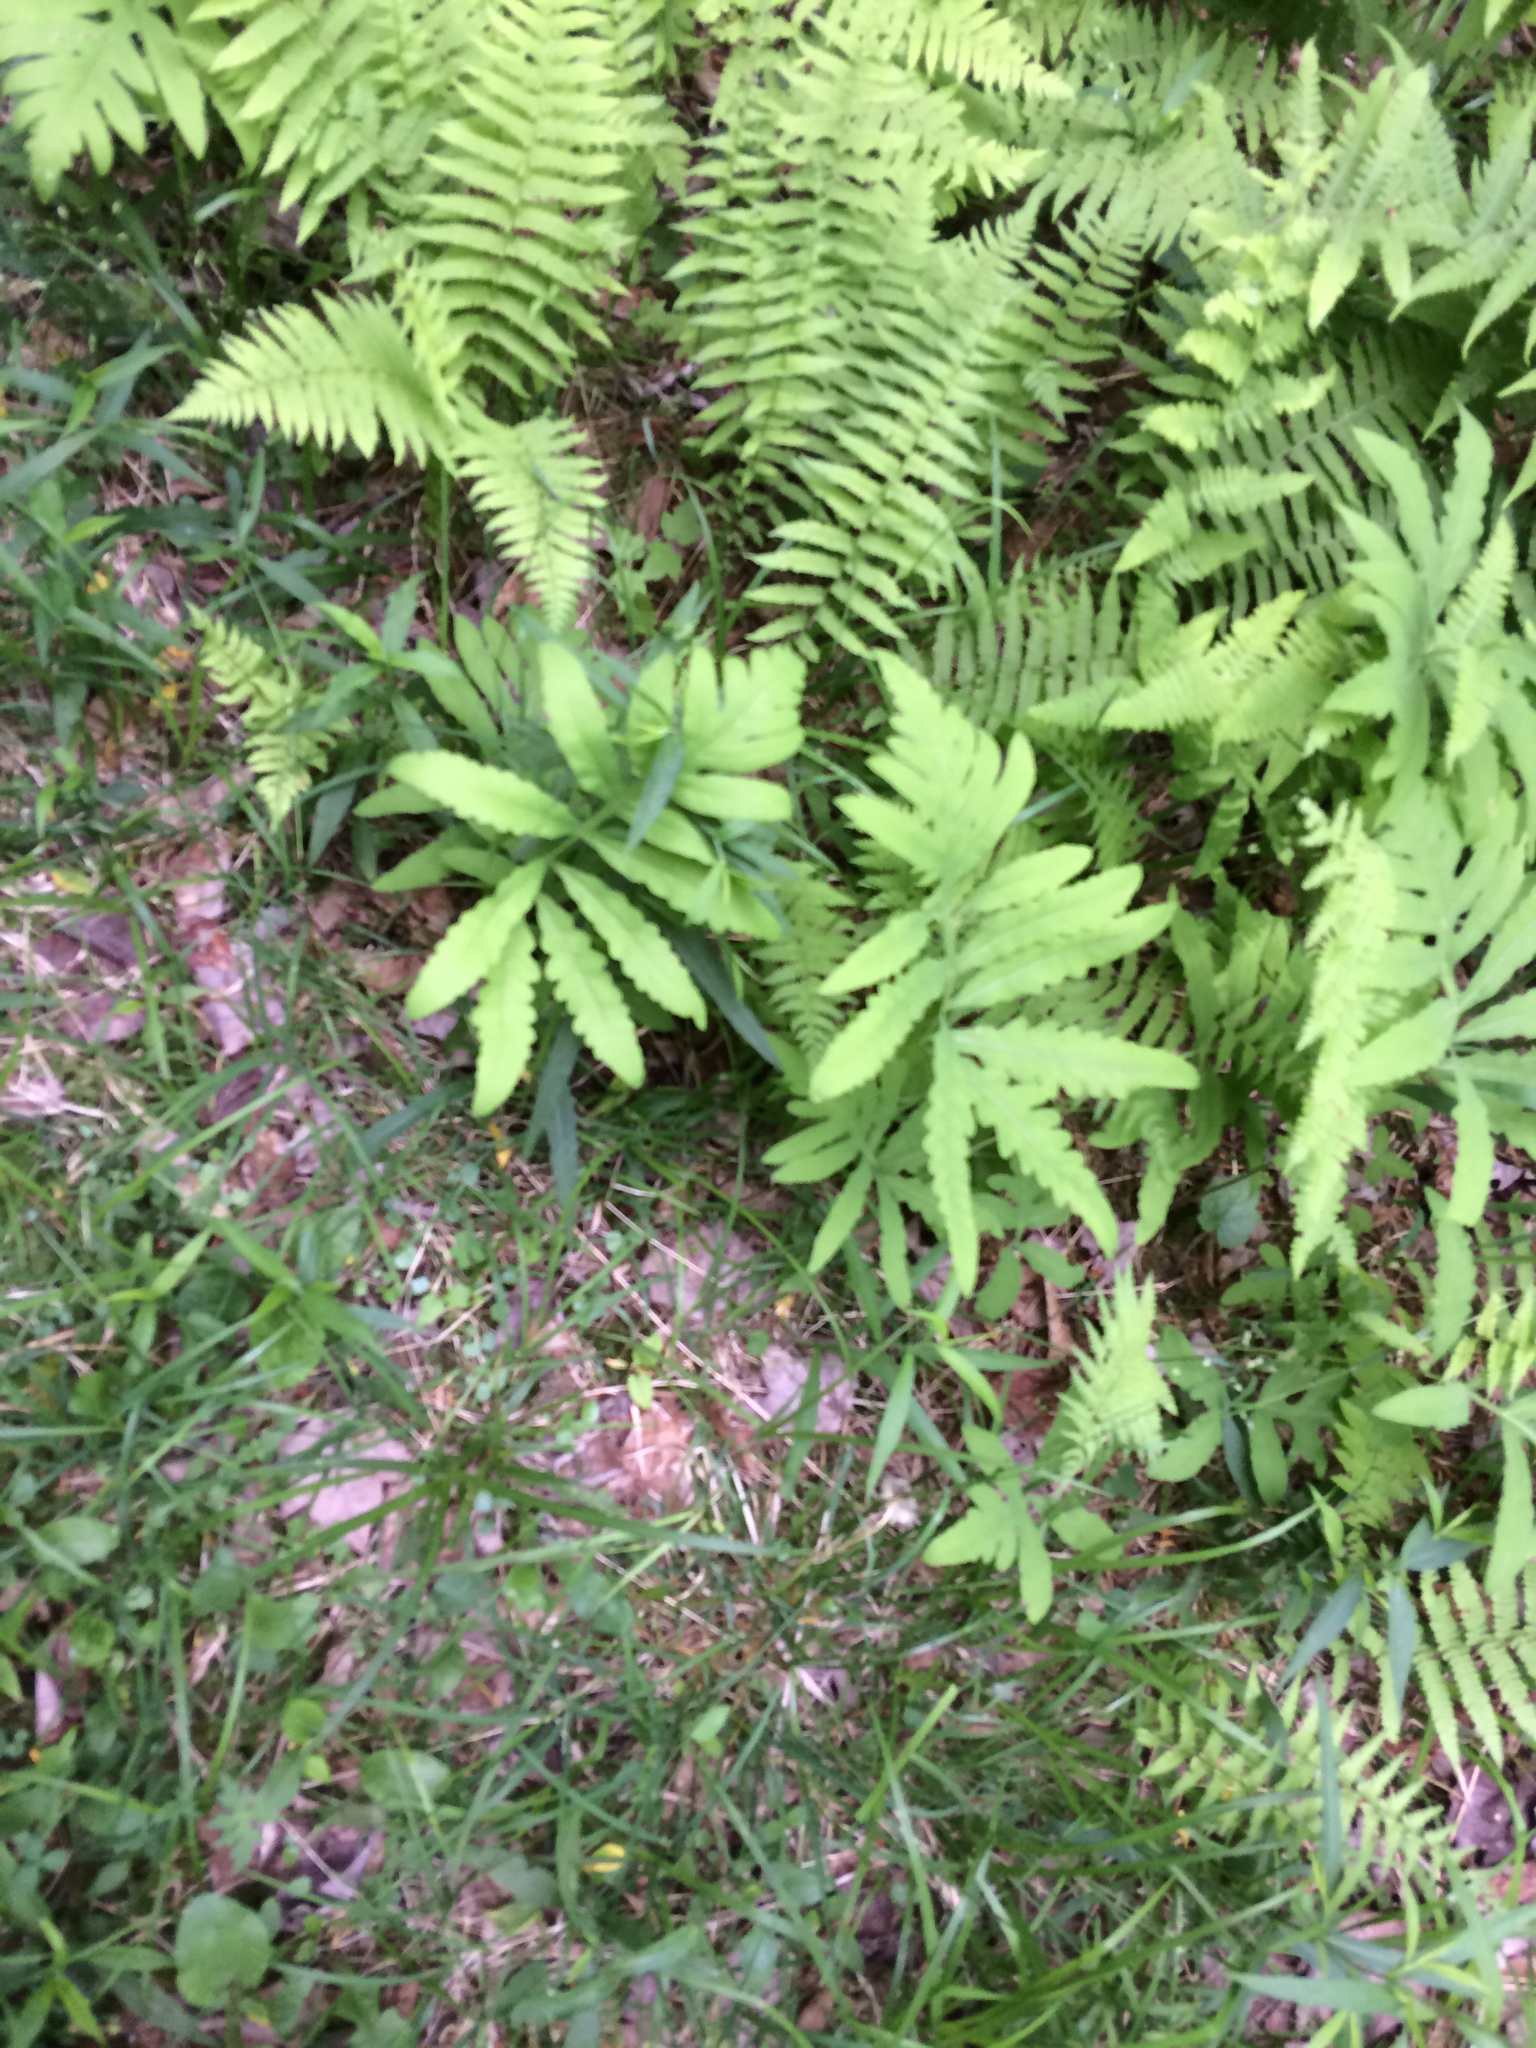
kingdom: Plantae
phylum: Tracheophyta
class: Polypodiopsida
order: Polypodiales
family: Onocleaceae
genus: Onoclea
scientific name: Onoclea sensibilis
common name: Sensitive fern
